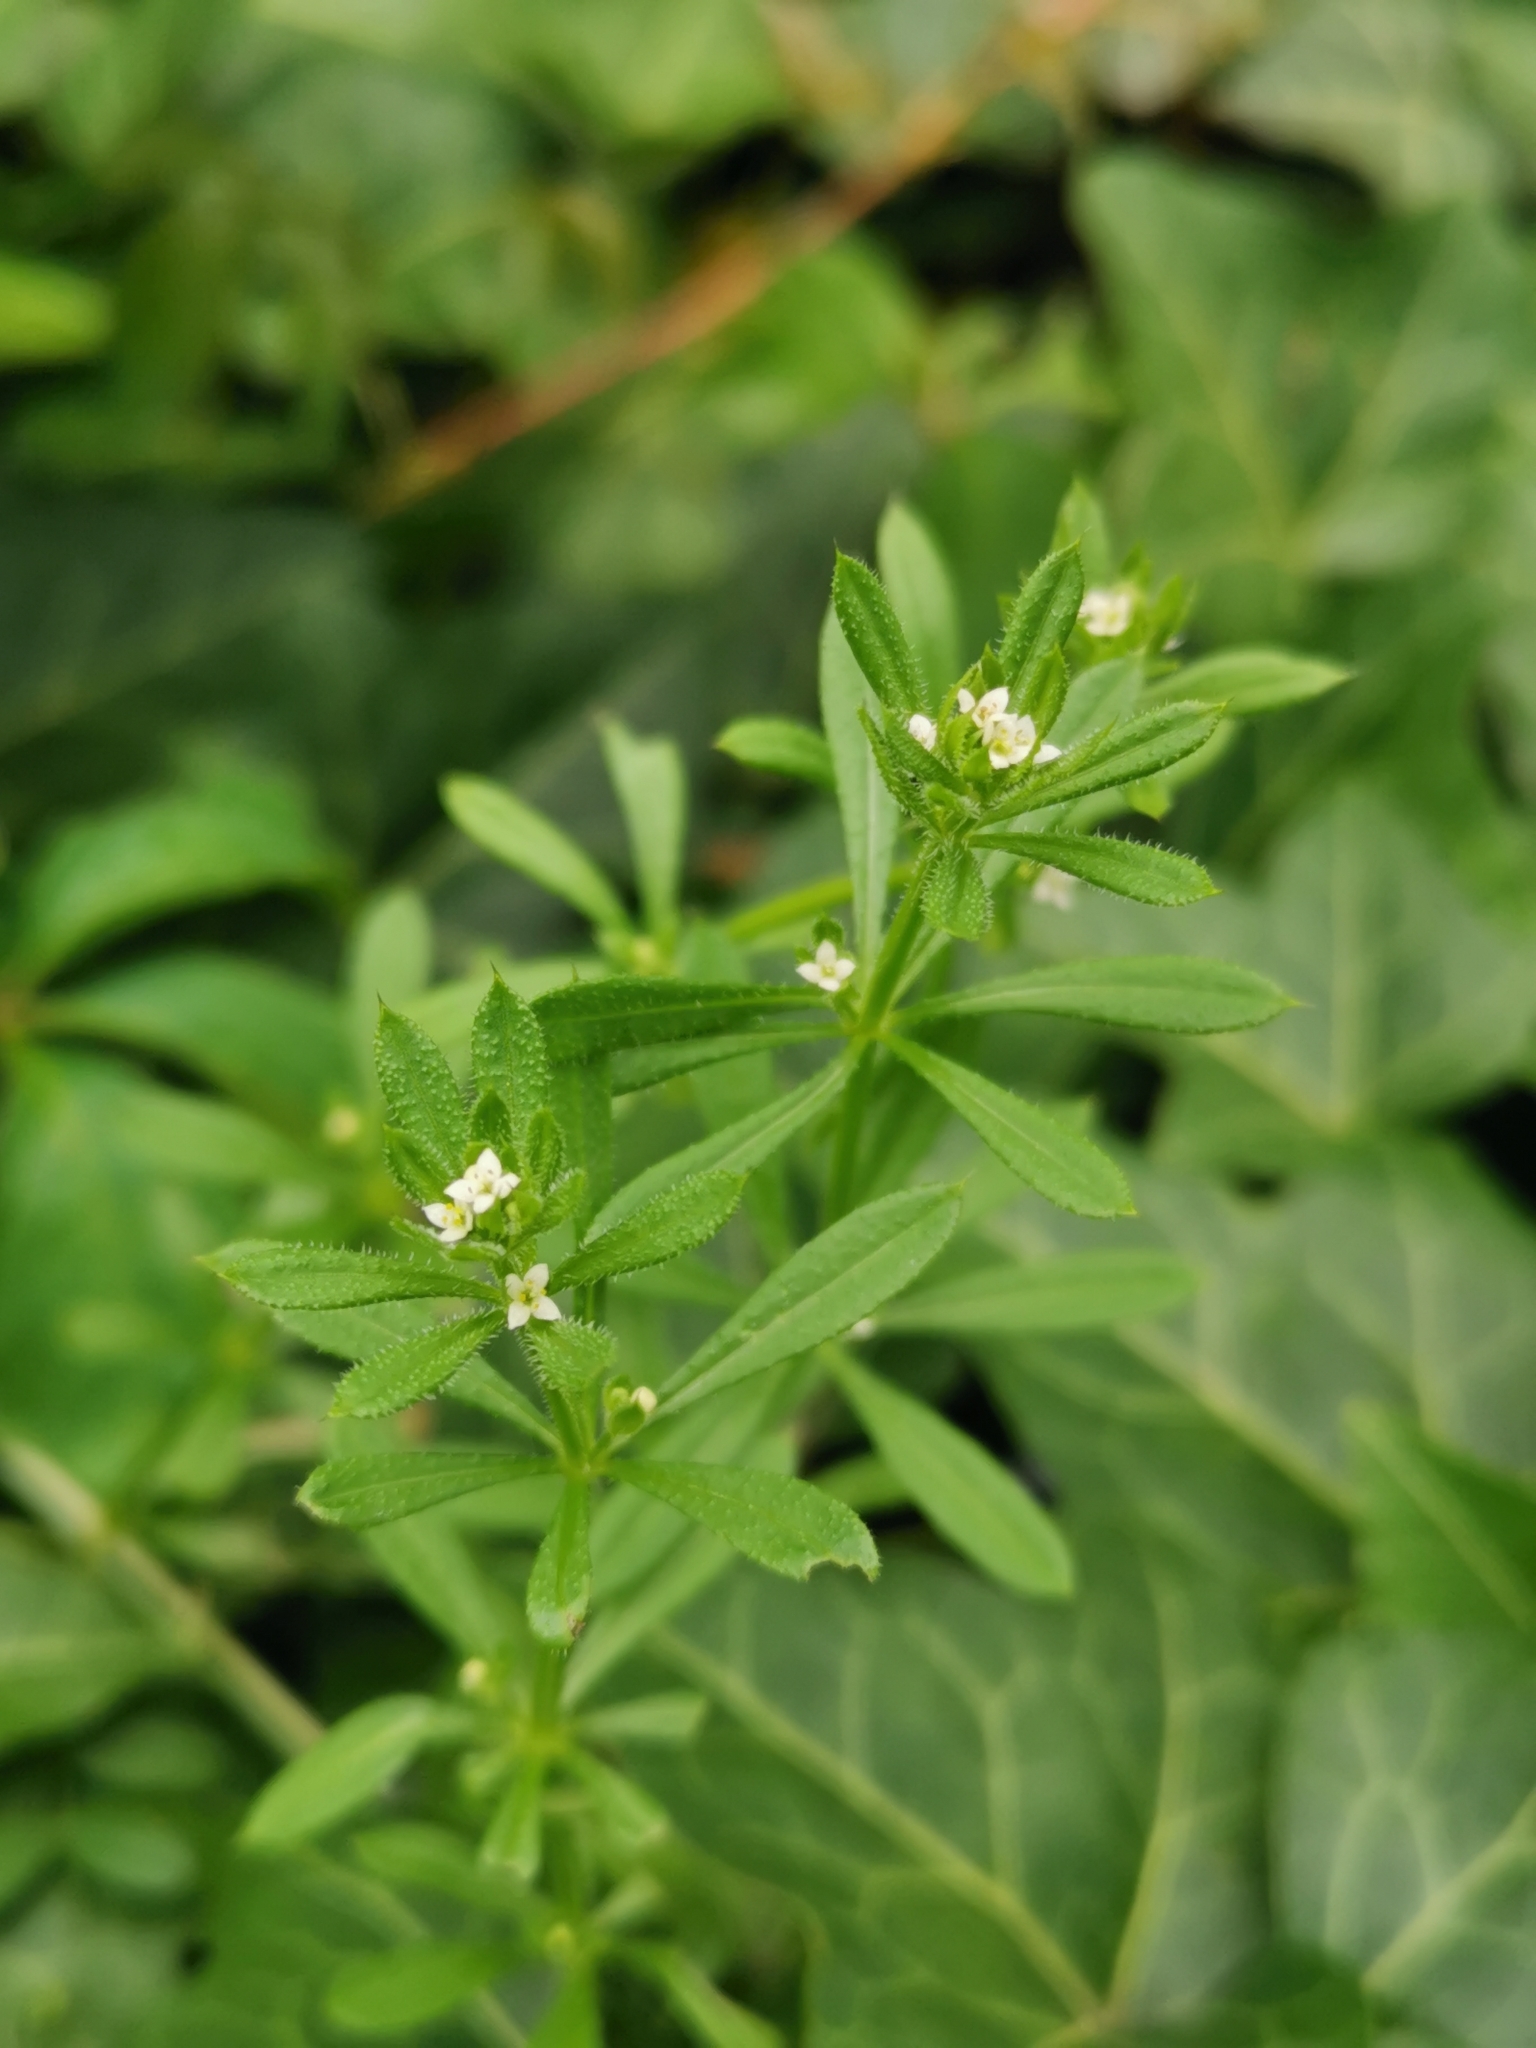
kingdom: Plantae
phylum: Tracheophyta
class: Magnoliopsida
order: Gentianales
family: Rubiaceae
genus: Galium
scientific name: Galium aparine
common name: Cleavers
